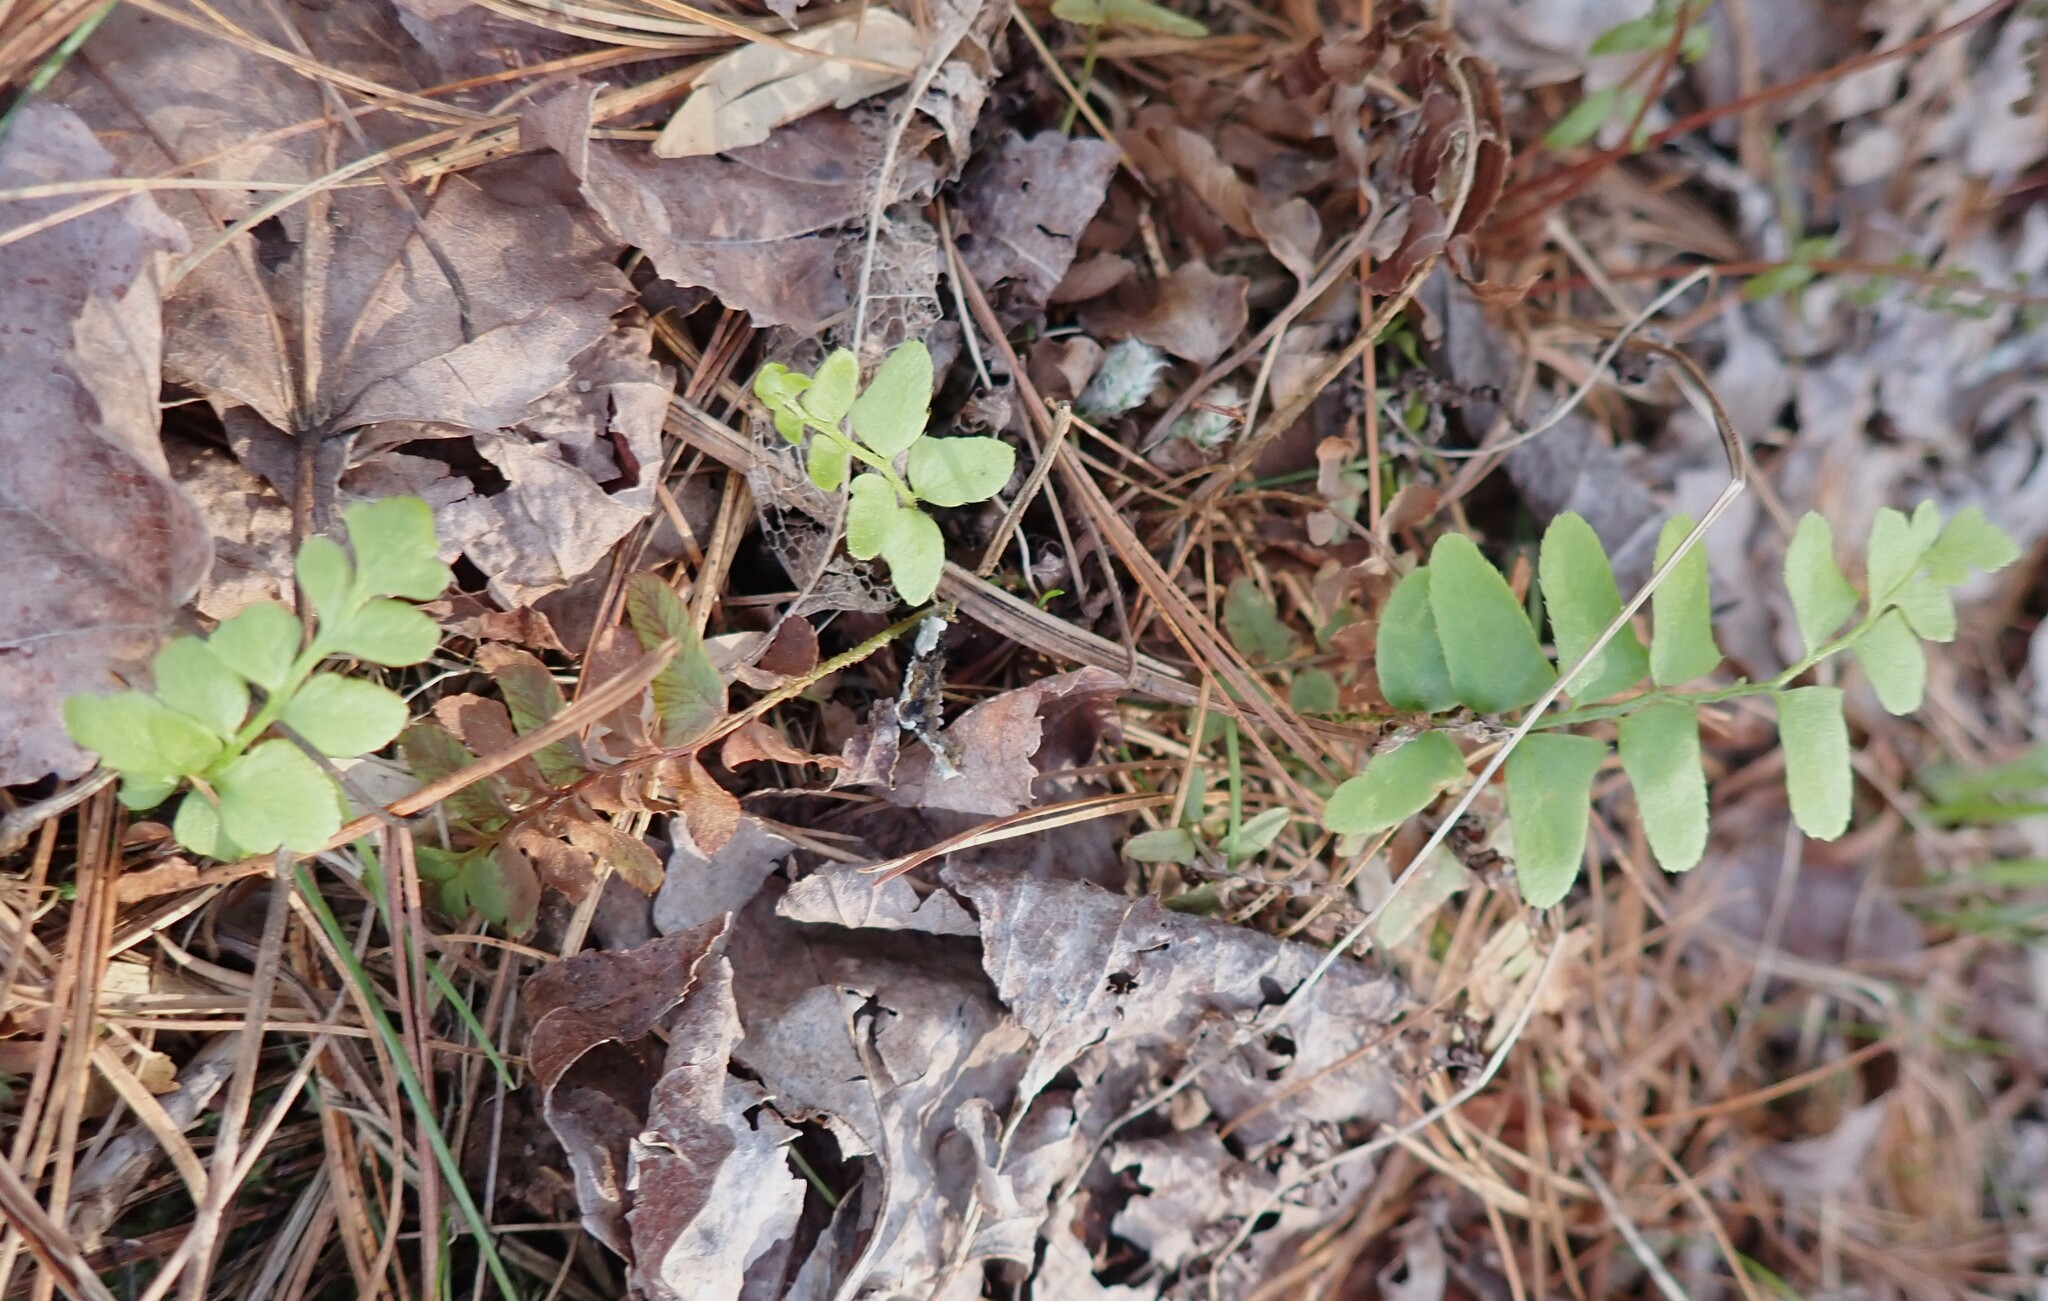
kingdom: Plantae
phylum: Tracheophyta
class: Polypodiopsida
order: Polypodiales
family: Dryopteridaceae
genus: Polystichum
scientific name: Polystichum acrostichoides
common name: Christmas fern
